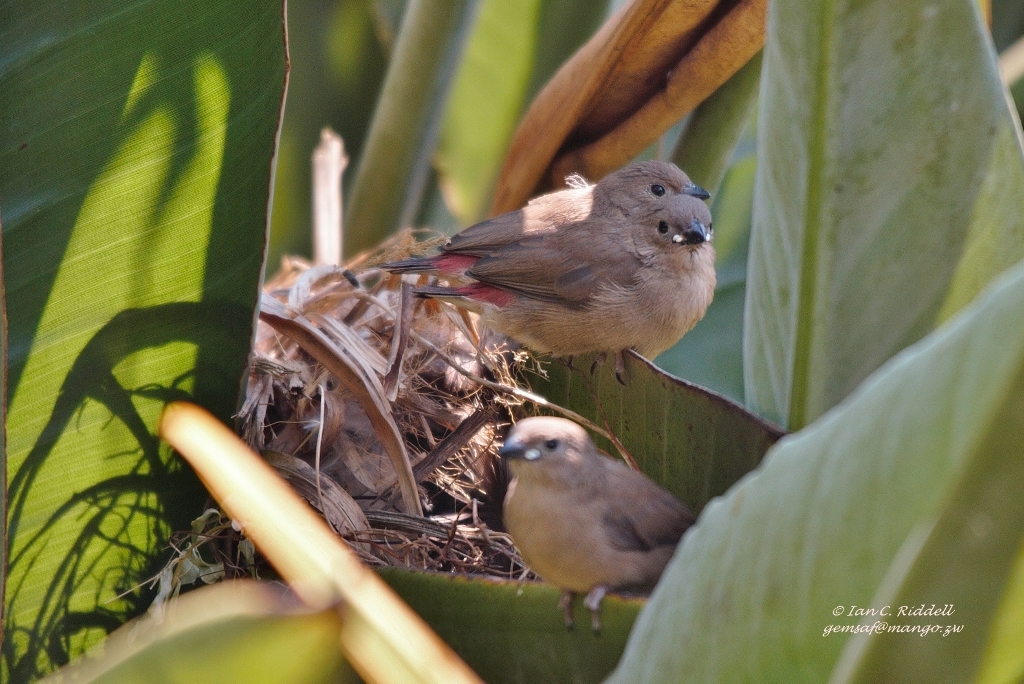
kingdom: Animalia
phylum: Chordata
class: Aves
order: Passeriformes
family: Estrildidae
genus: Lagonosticta
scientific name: Lagonosticta senegala
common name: Red-billed firefinch
